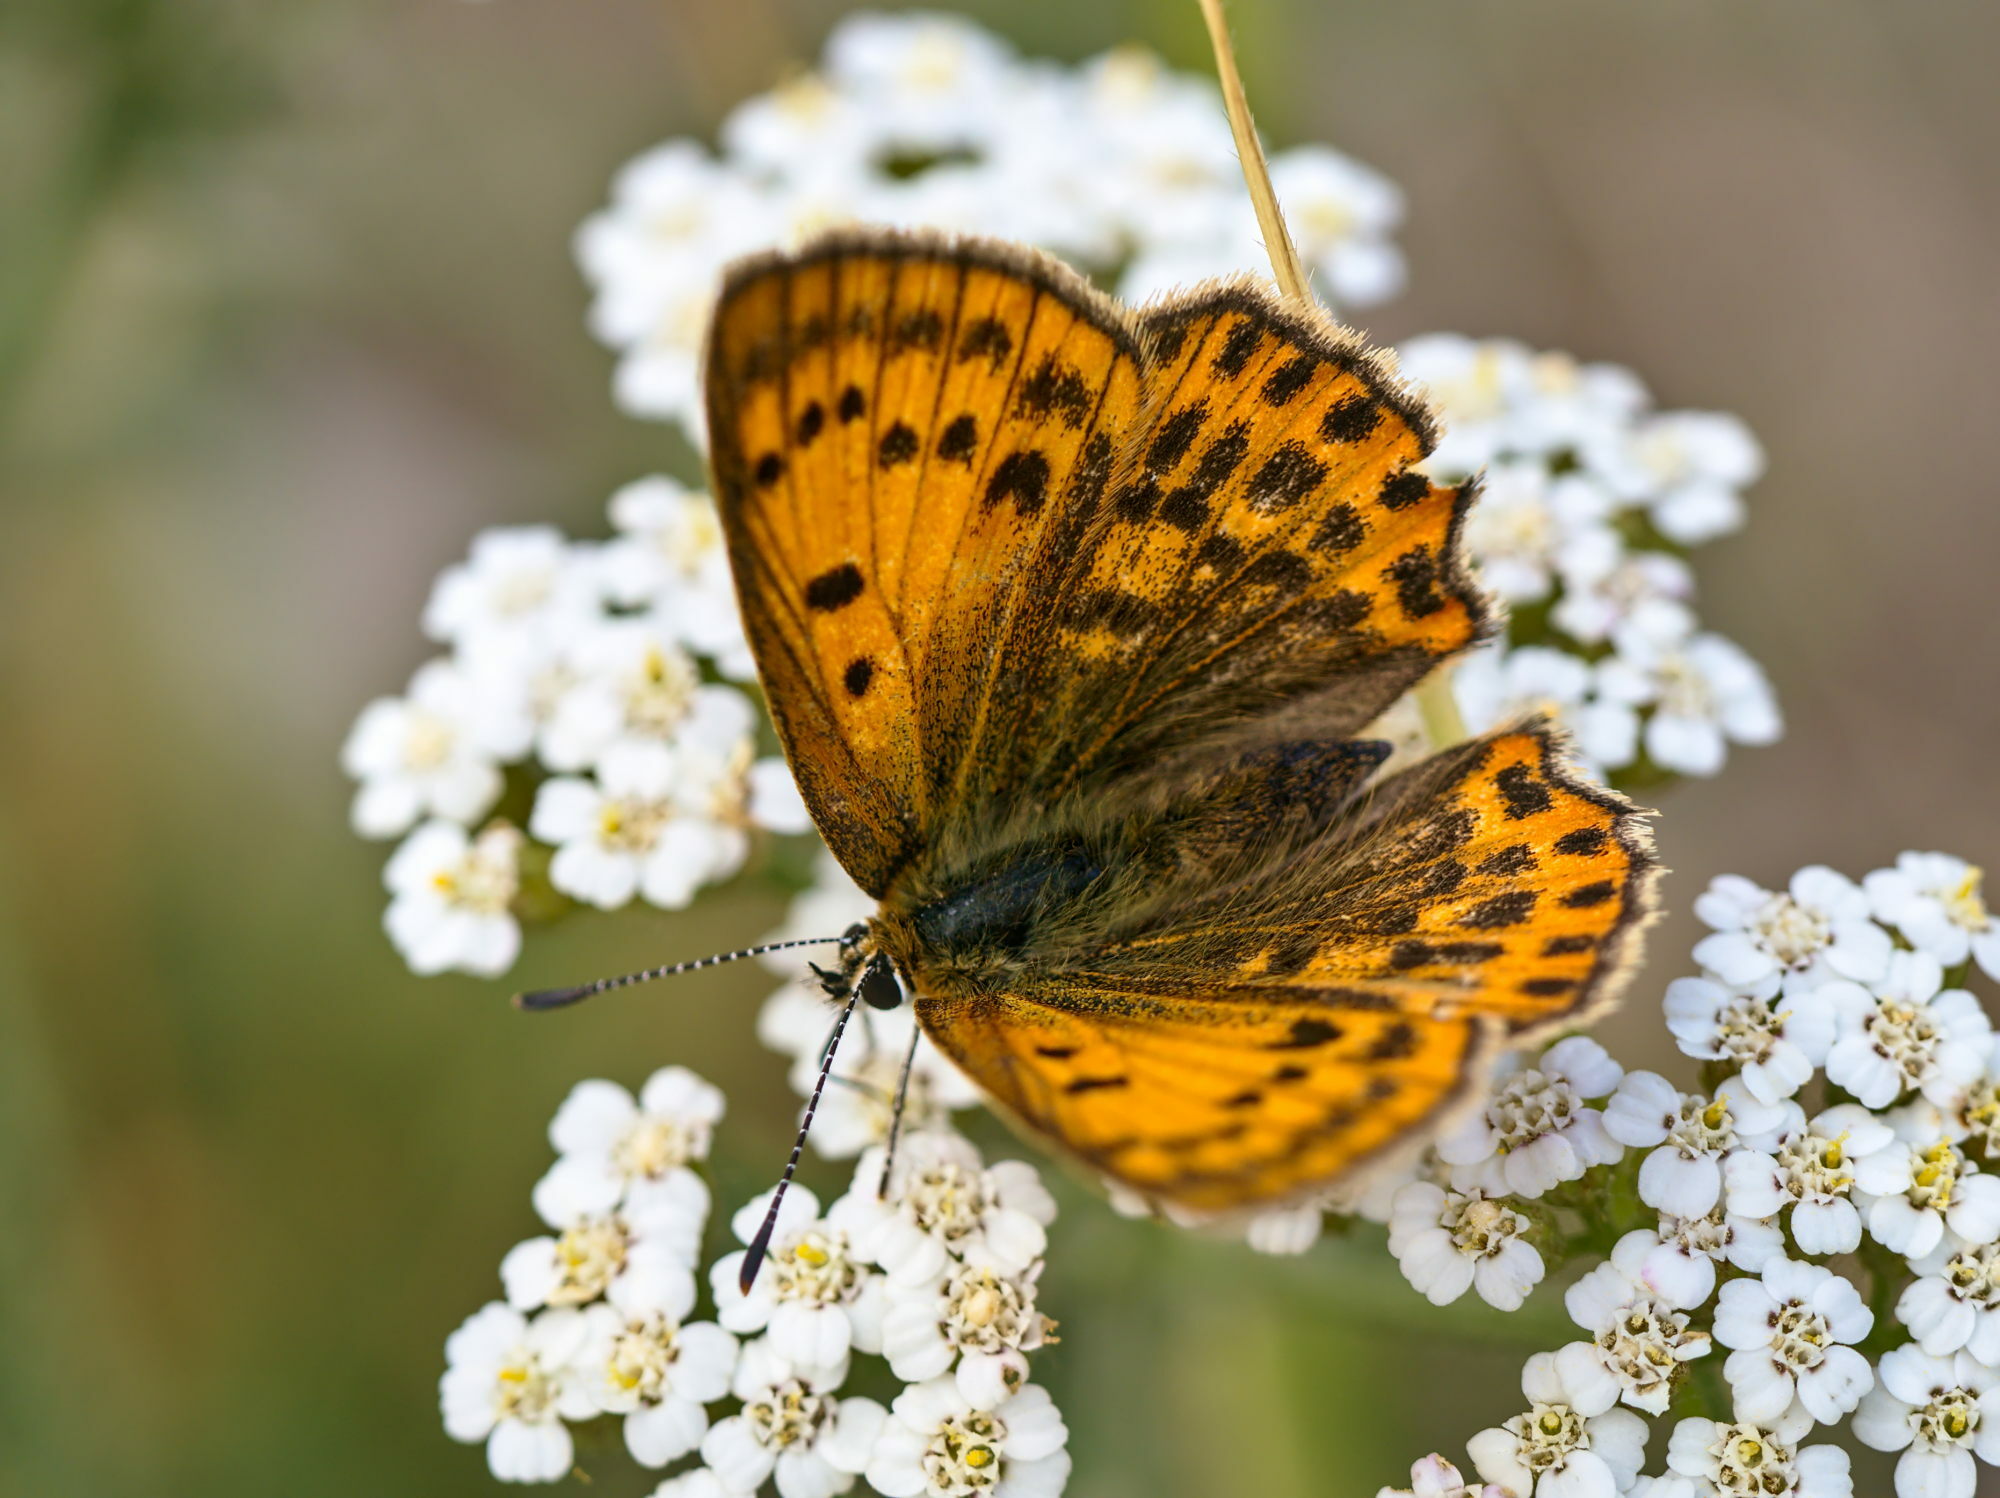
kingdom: Animalia
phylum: Arthropoda
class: Insecta
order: Lepidoptera
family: Lycaenidae
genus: Lycaena
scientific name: Lycaena virgaureae
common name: Scarce copper
